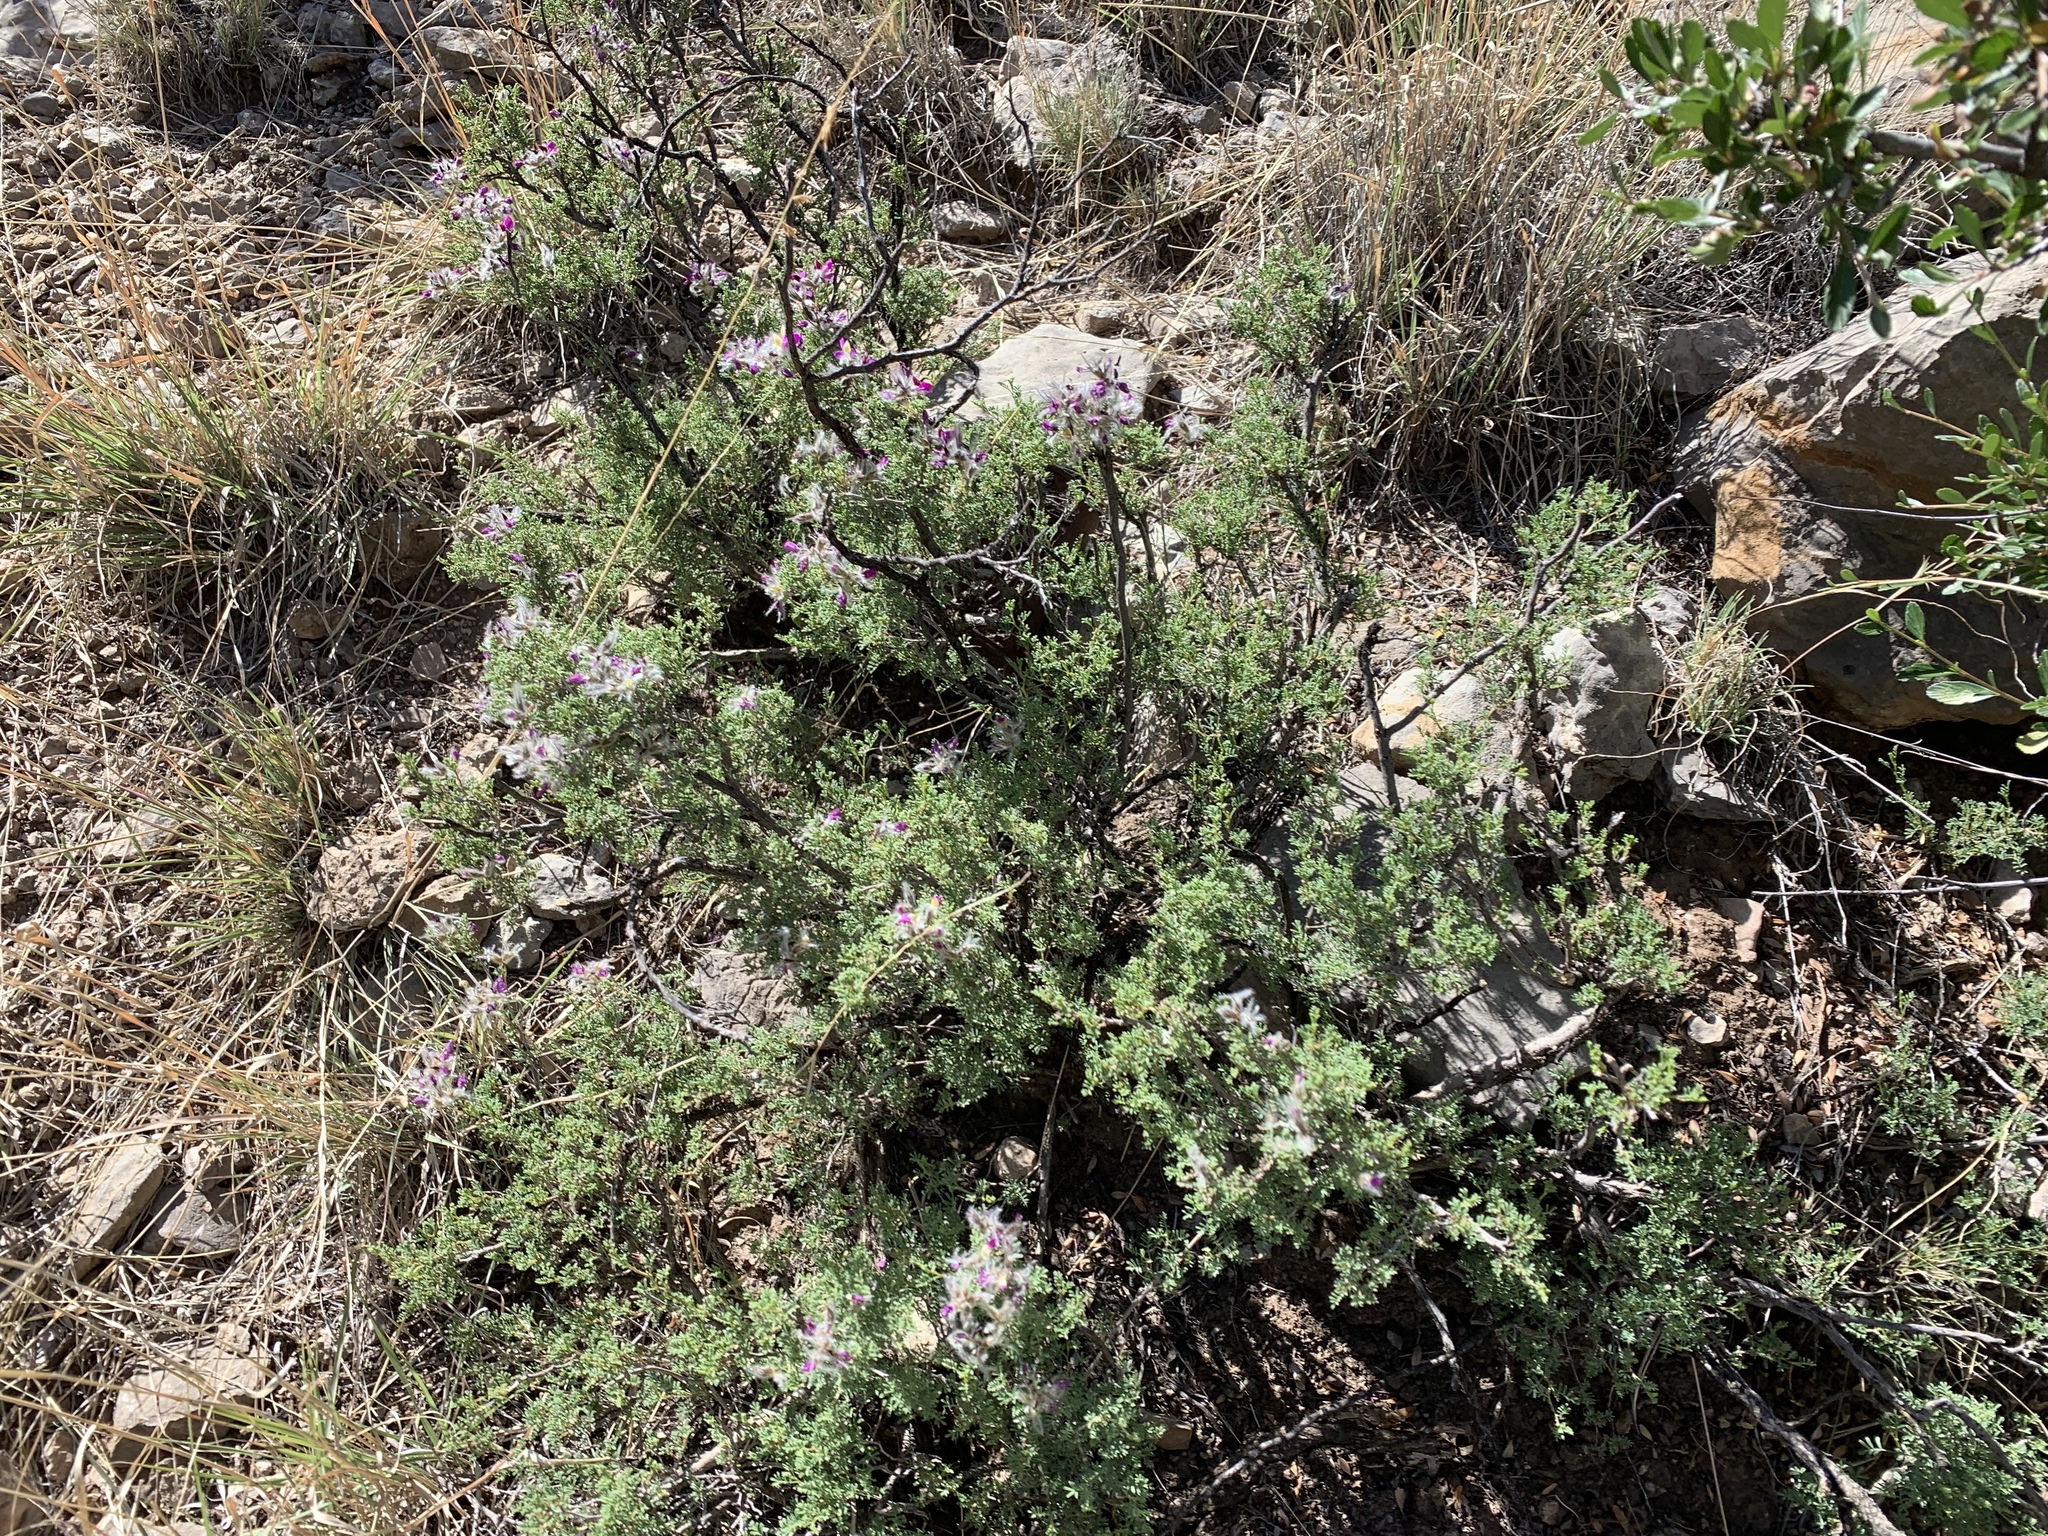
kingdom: Plantae
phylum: Tracheophyta
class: Magnoliopsida
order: Fabales
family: Fabaceae
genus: Dalea
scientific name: Dalea formosa
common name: Feather-plume dalea
